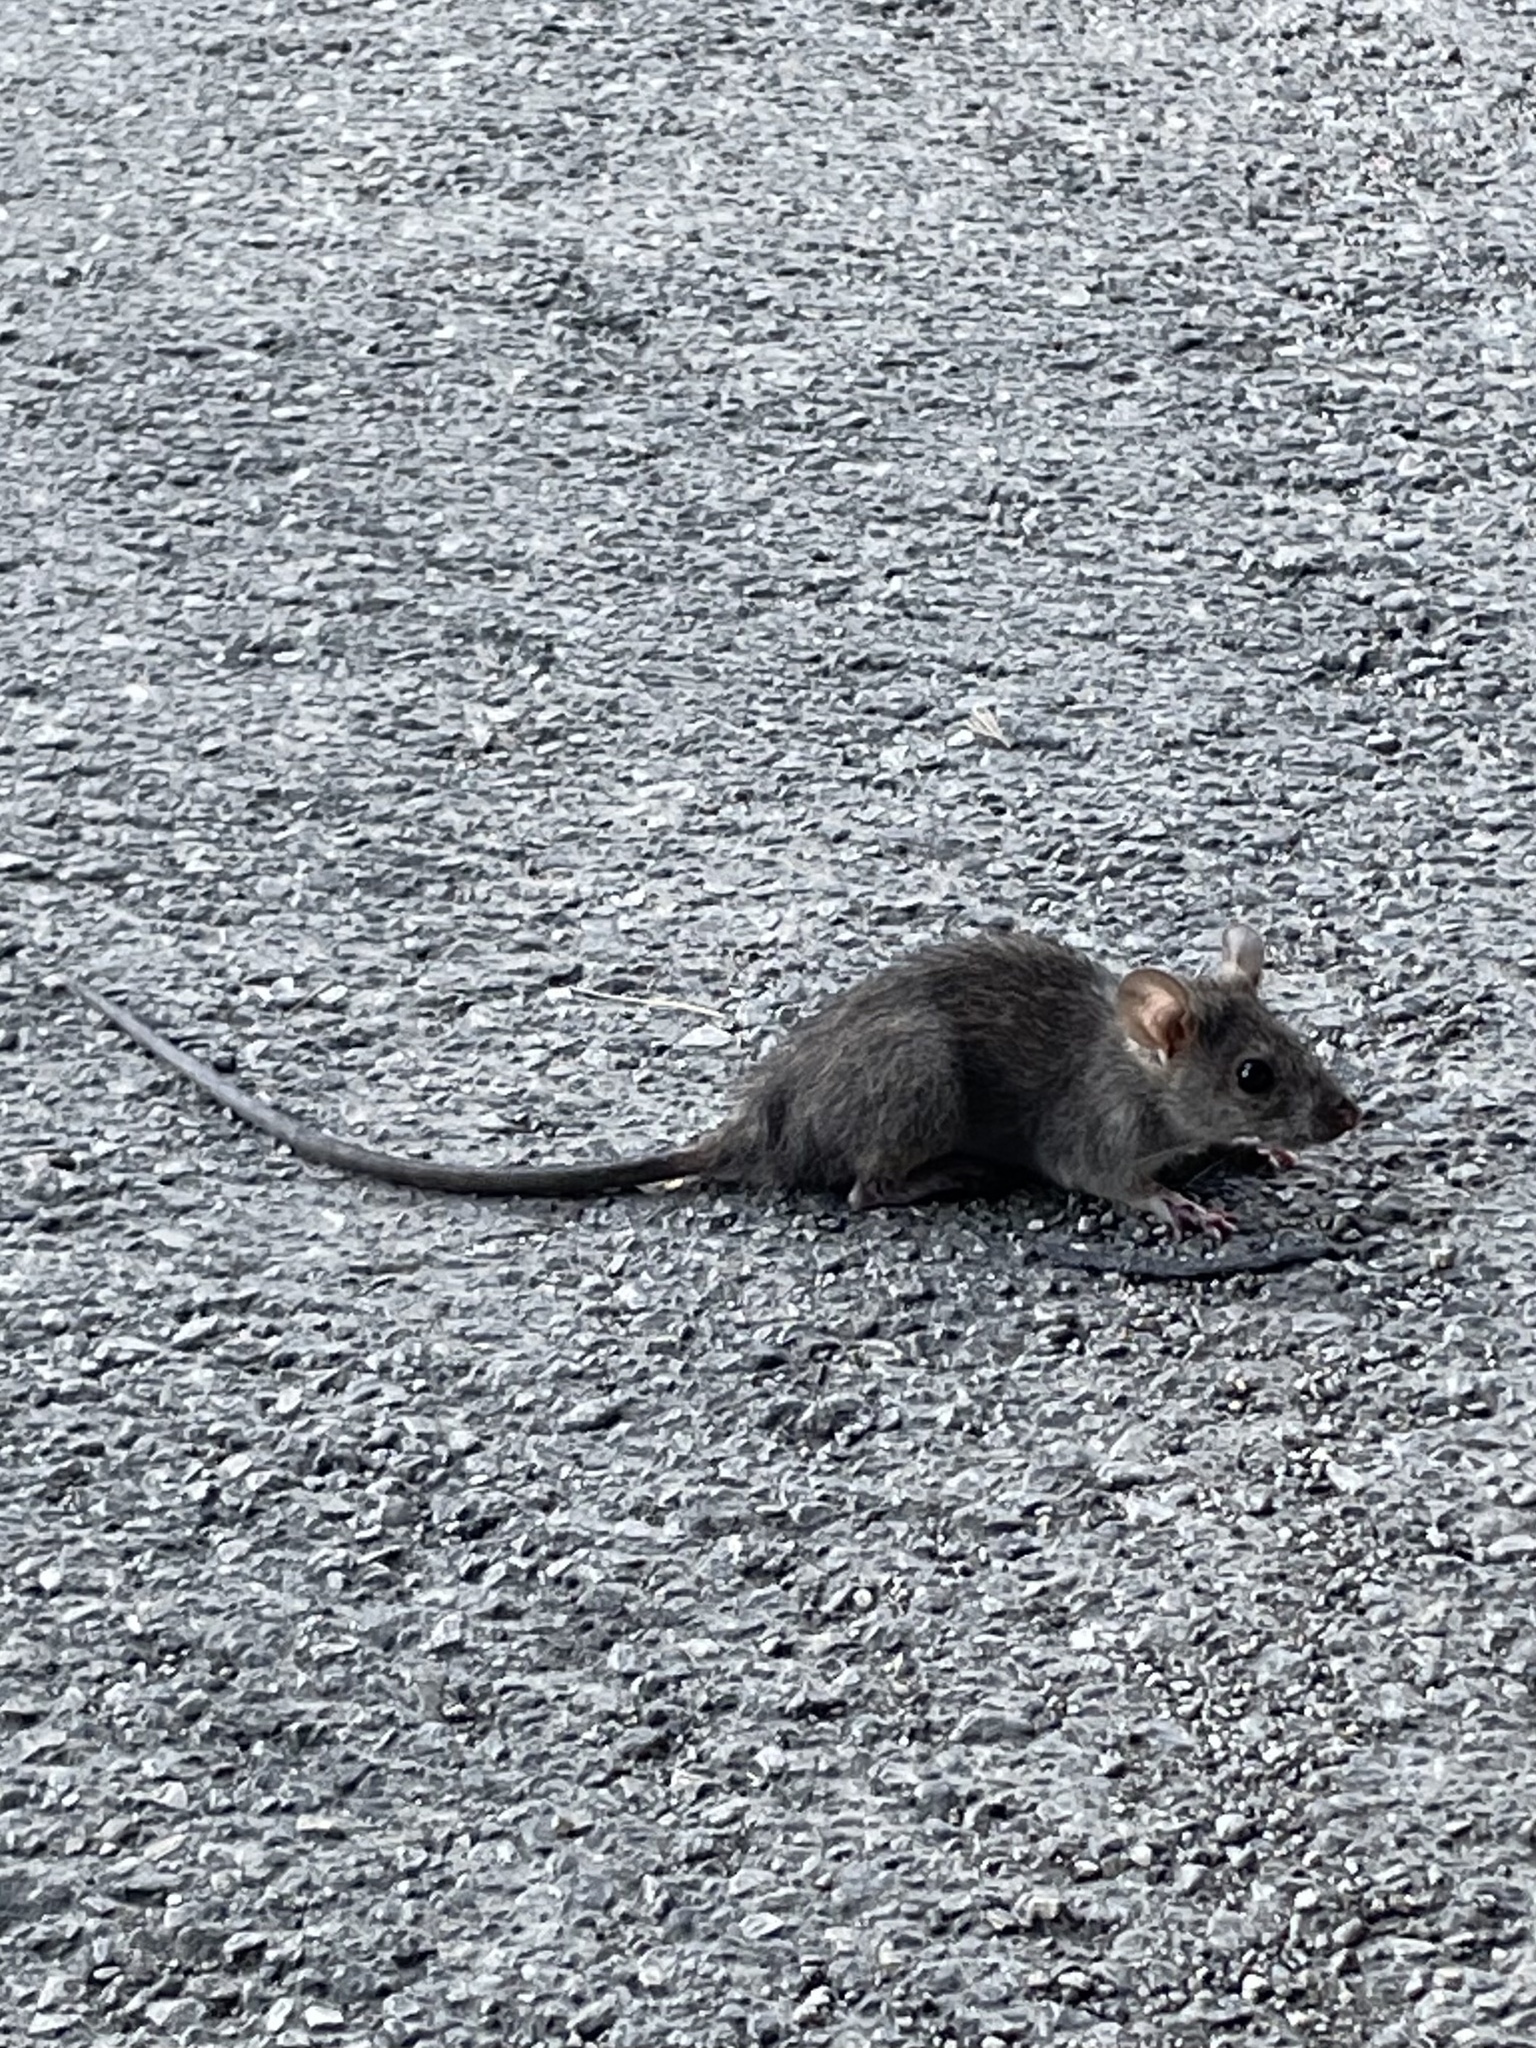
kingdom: Animalia
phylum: Chordata
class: Mammalia
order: Rodentia
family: Muridae
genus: Rattus
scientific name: Rattus rattus
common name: Black rat
